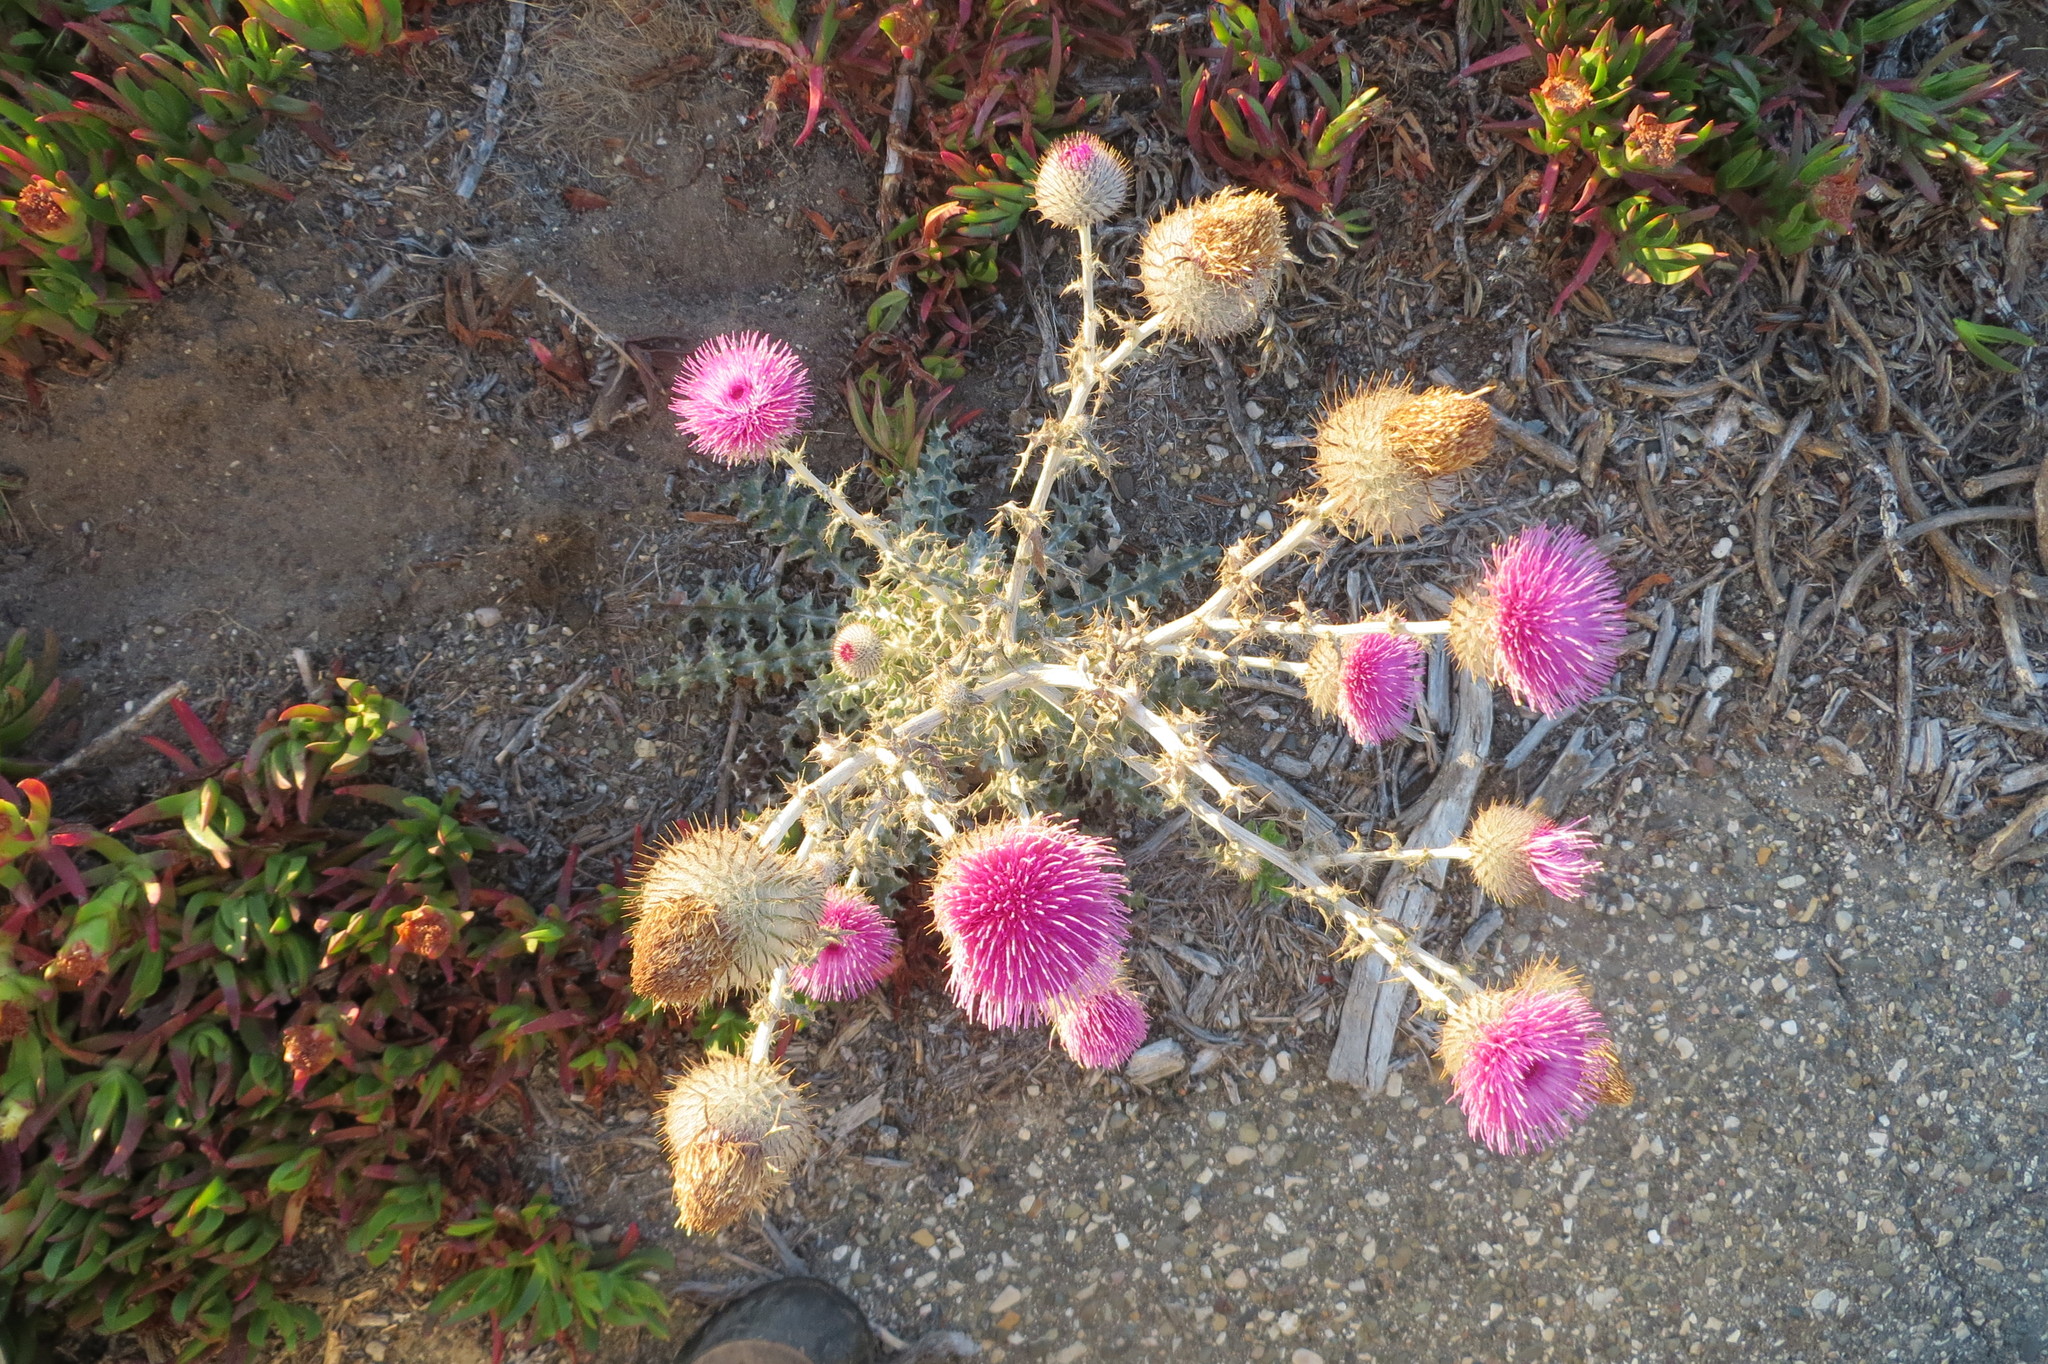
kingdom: Plantae
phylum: Tracheophyta
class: Magnoliopsida
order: Asterales
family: Asteraceae
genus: Cirsium
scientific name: Cirsium occidentale
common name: Western thistle
